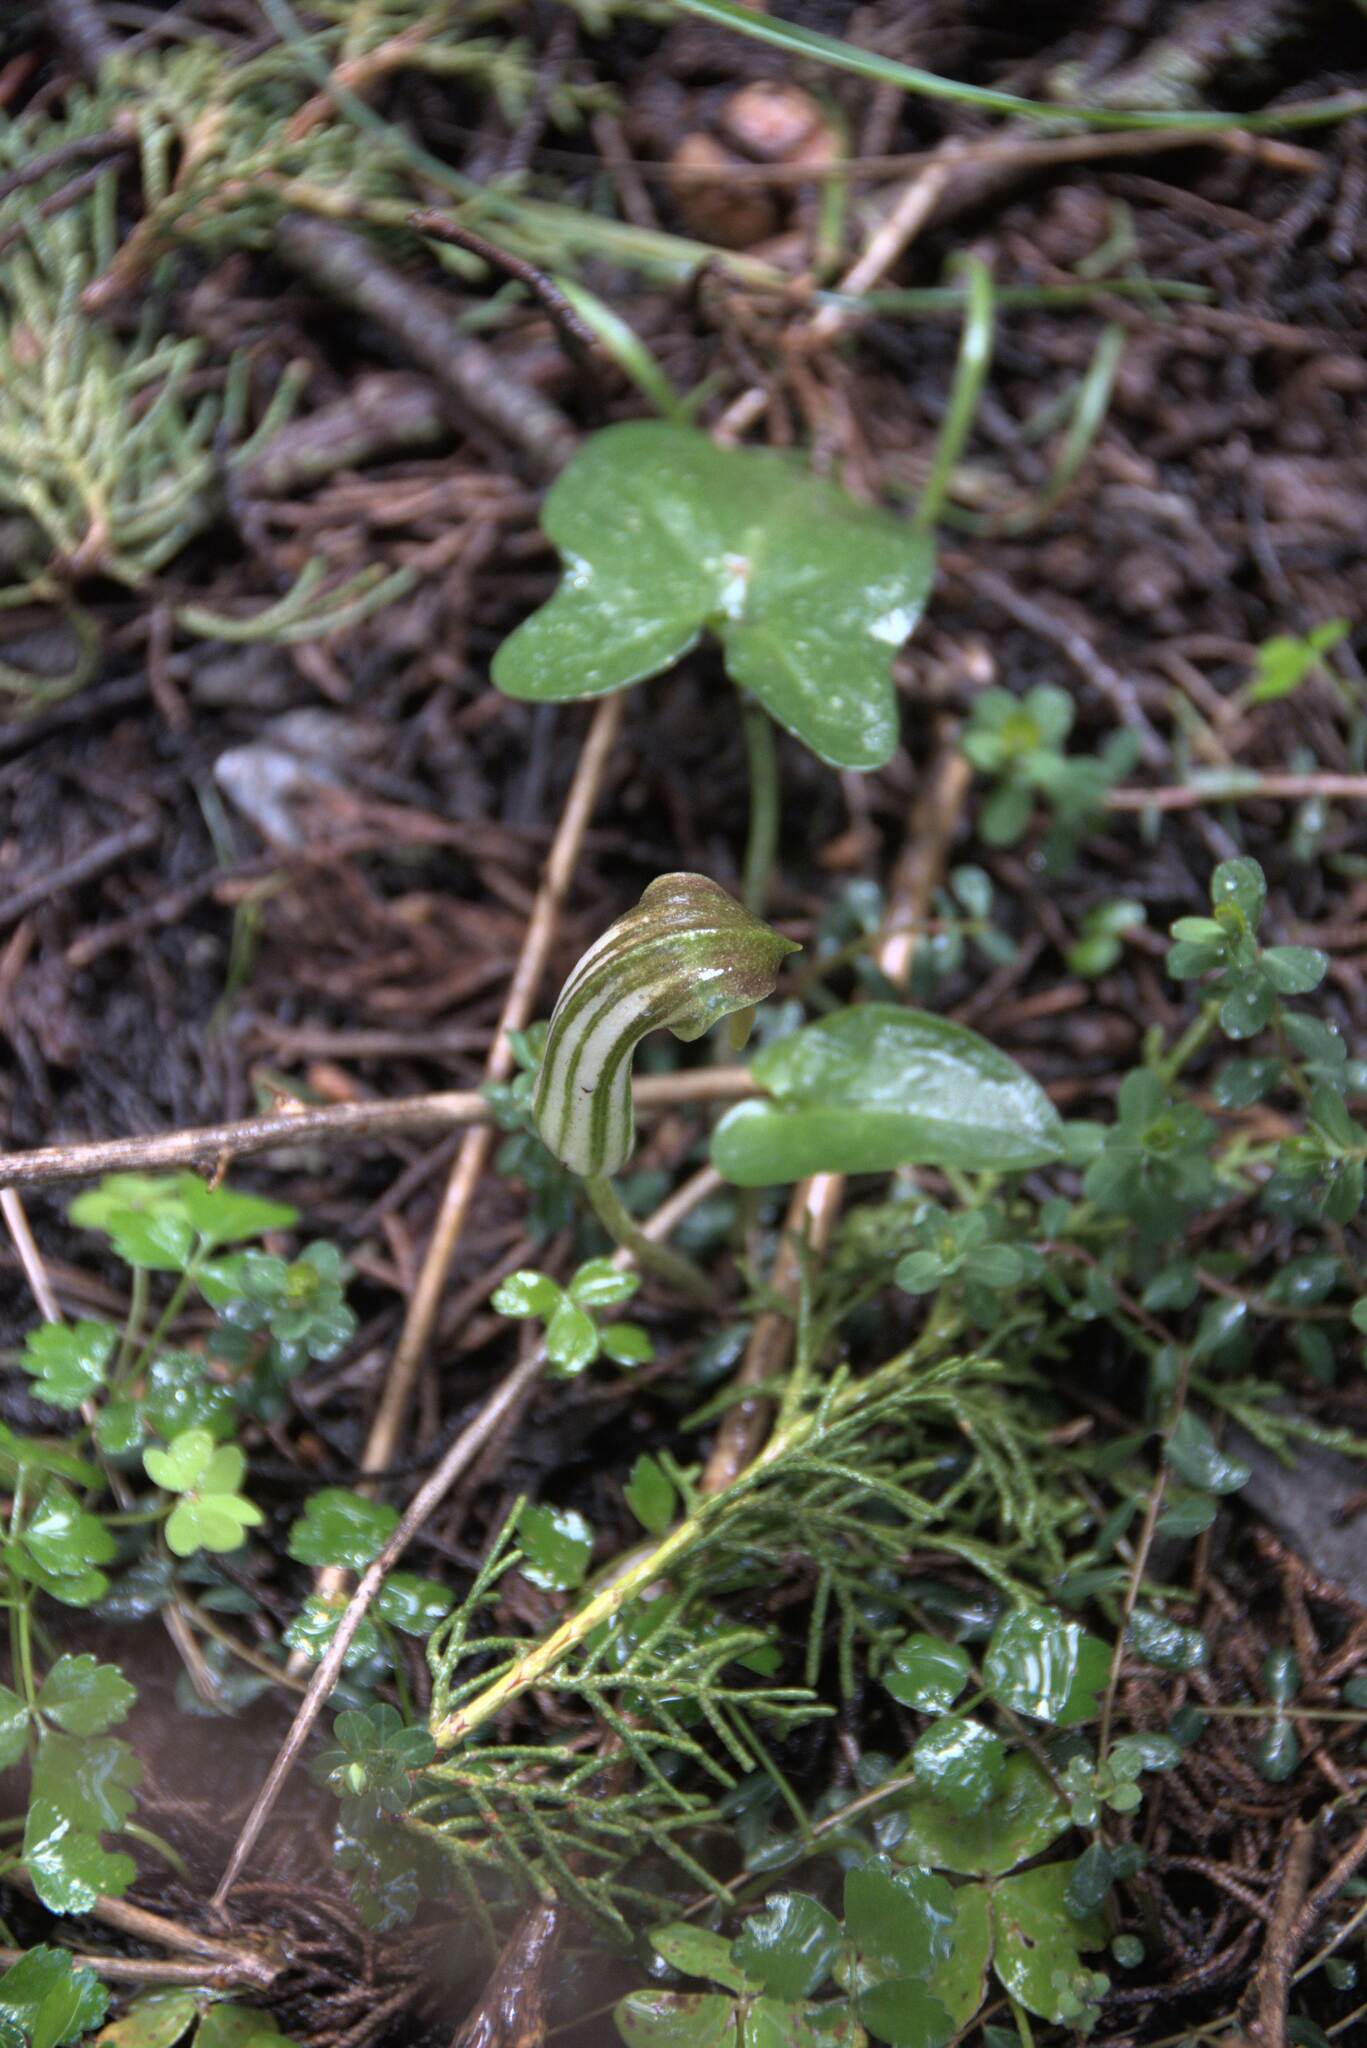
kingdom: Plantae
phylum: Tracheophyta
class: Liliopsida
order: Alismatales
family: Araceae
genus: Arisarum
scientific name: Arisarum vulgare
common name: Common arisarum
